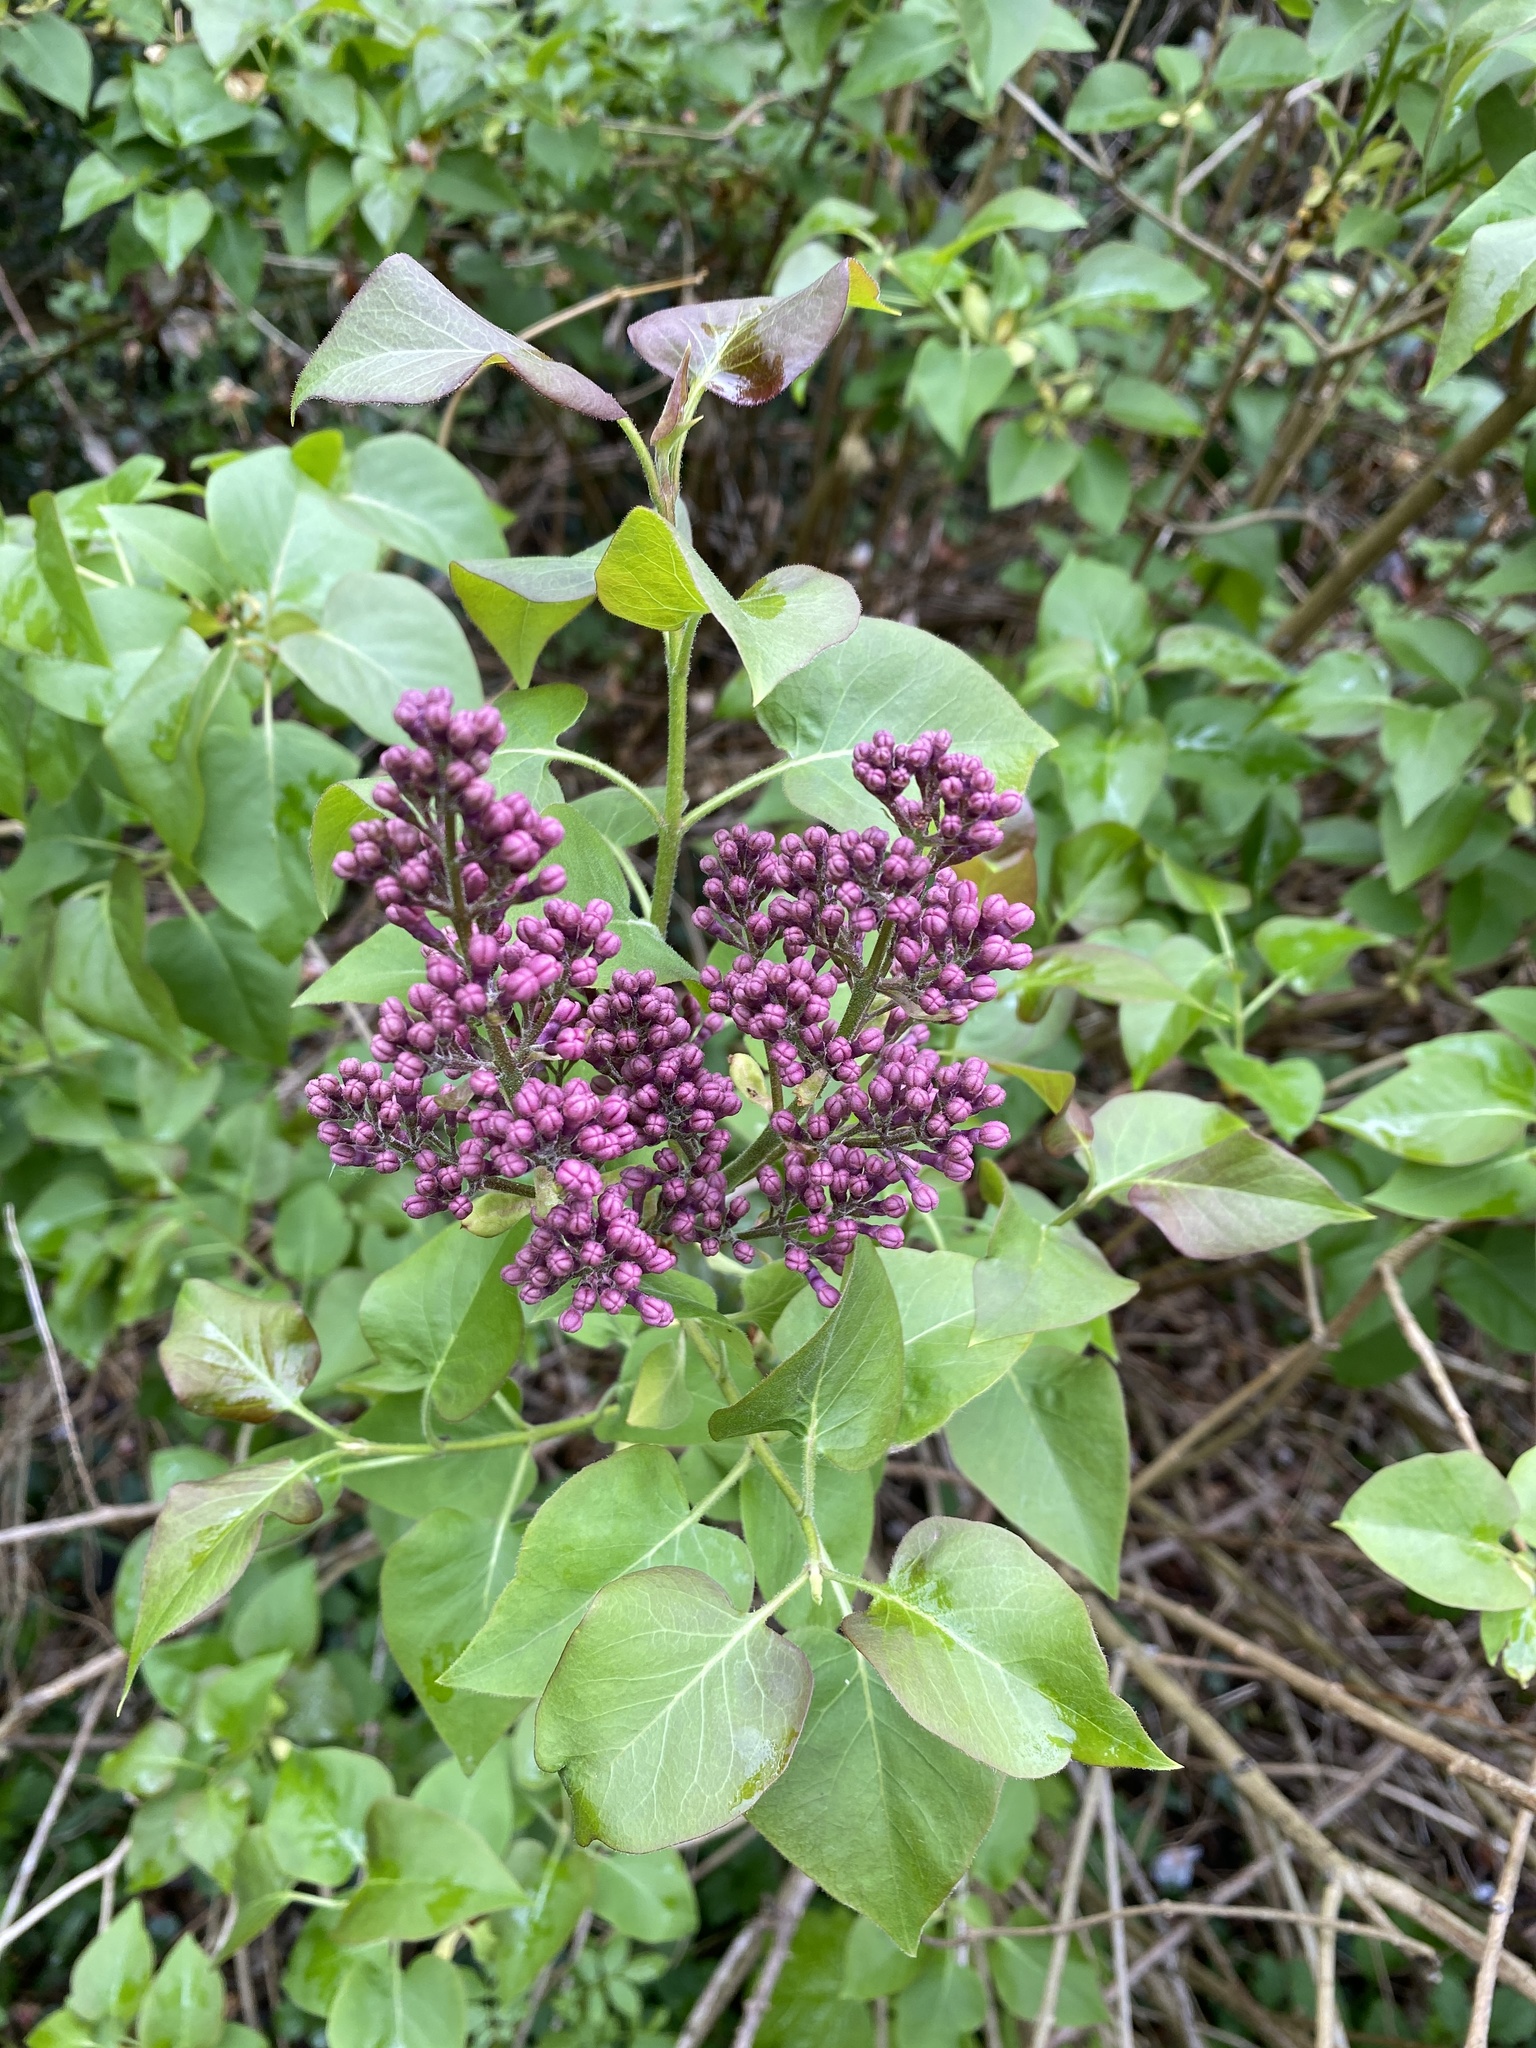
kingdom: Plantae
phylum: Tracheophyta
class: Magnoliopsida
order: Lamiales
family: Oleaceae
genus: Syringa
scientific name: Syringa vulgaris
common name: Common lilac
